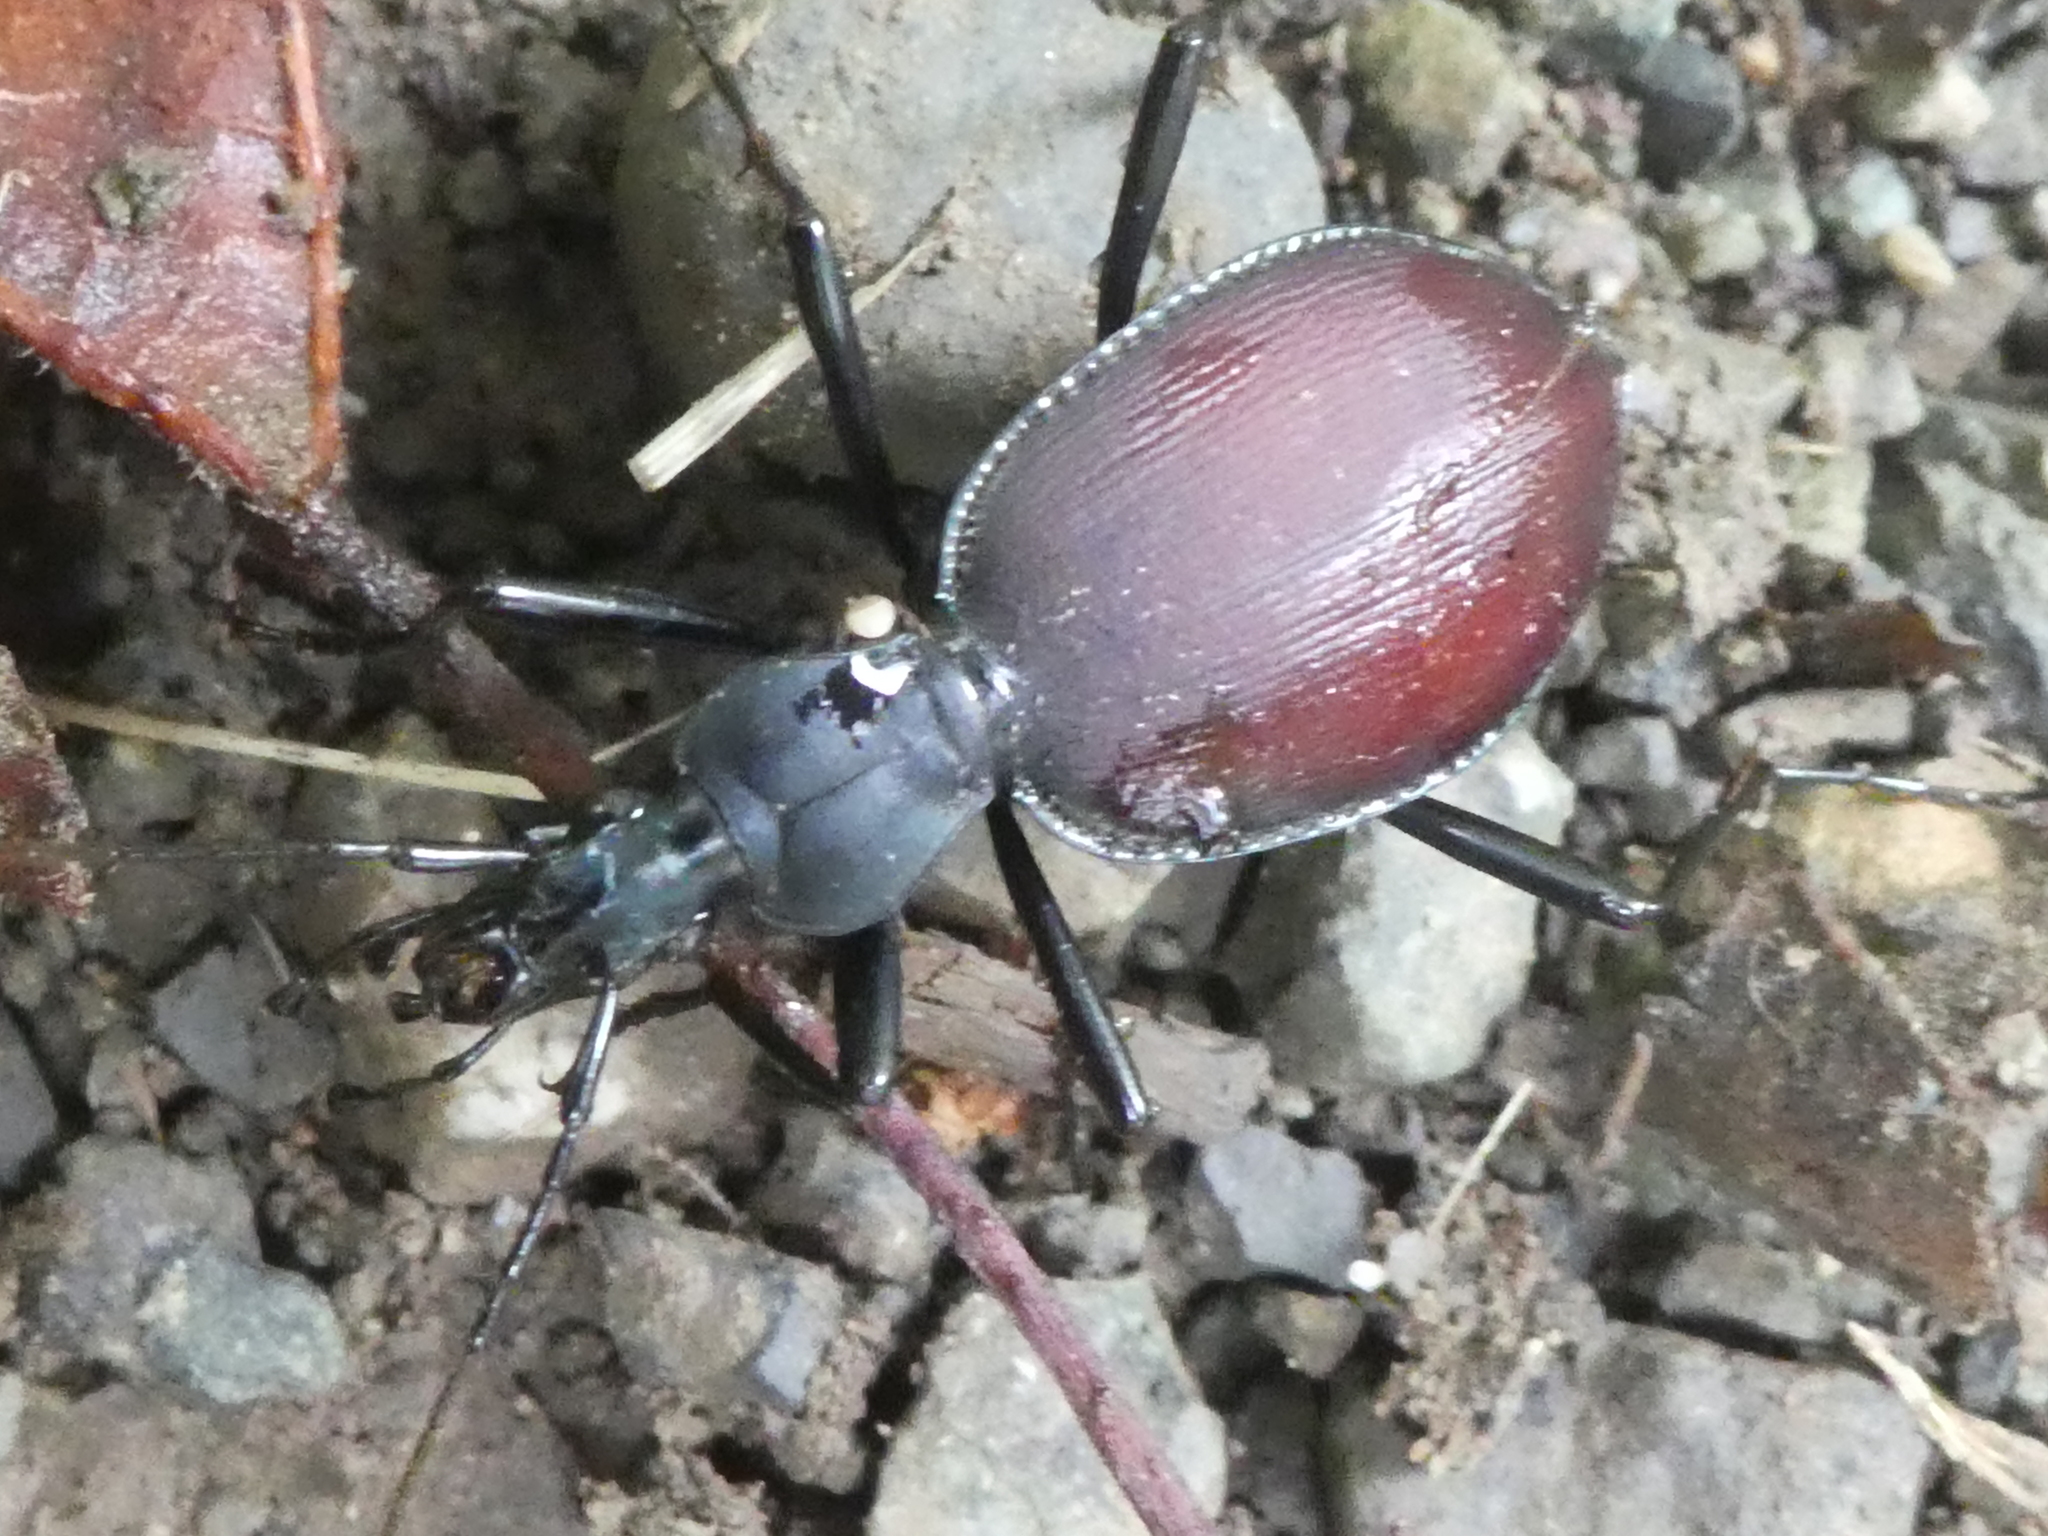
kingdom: Animalia
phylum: Arthropoda
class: Insecta
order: Coleoptera
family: Carabidae
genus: Scaphinotus
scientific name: Scaphinotus angusticollis
